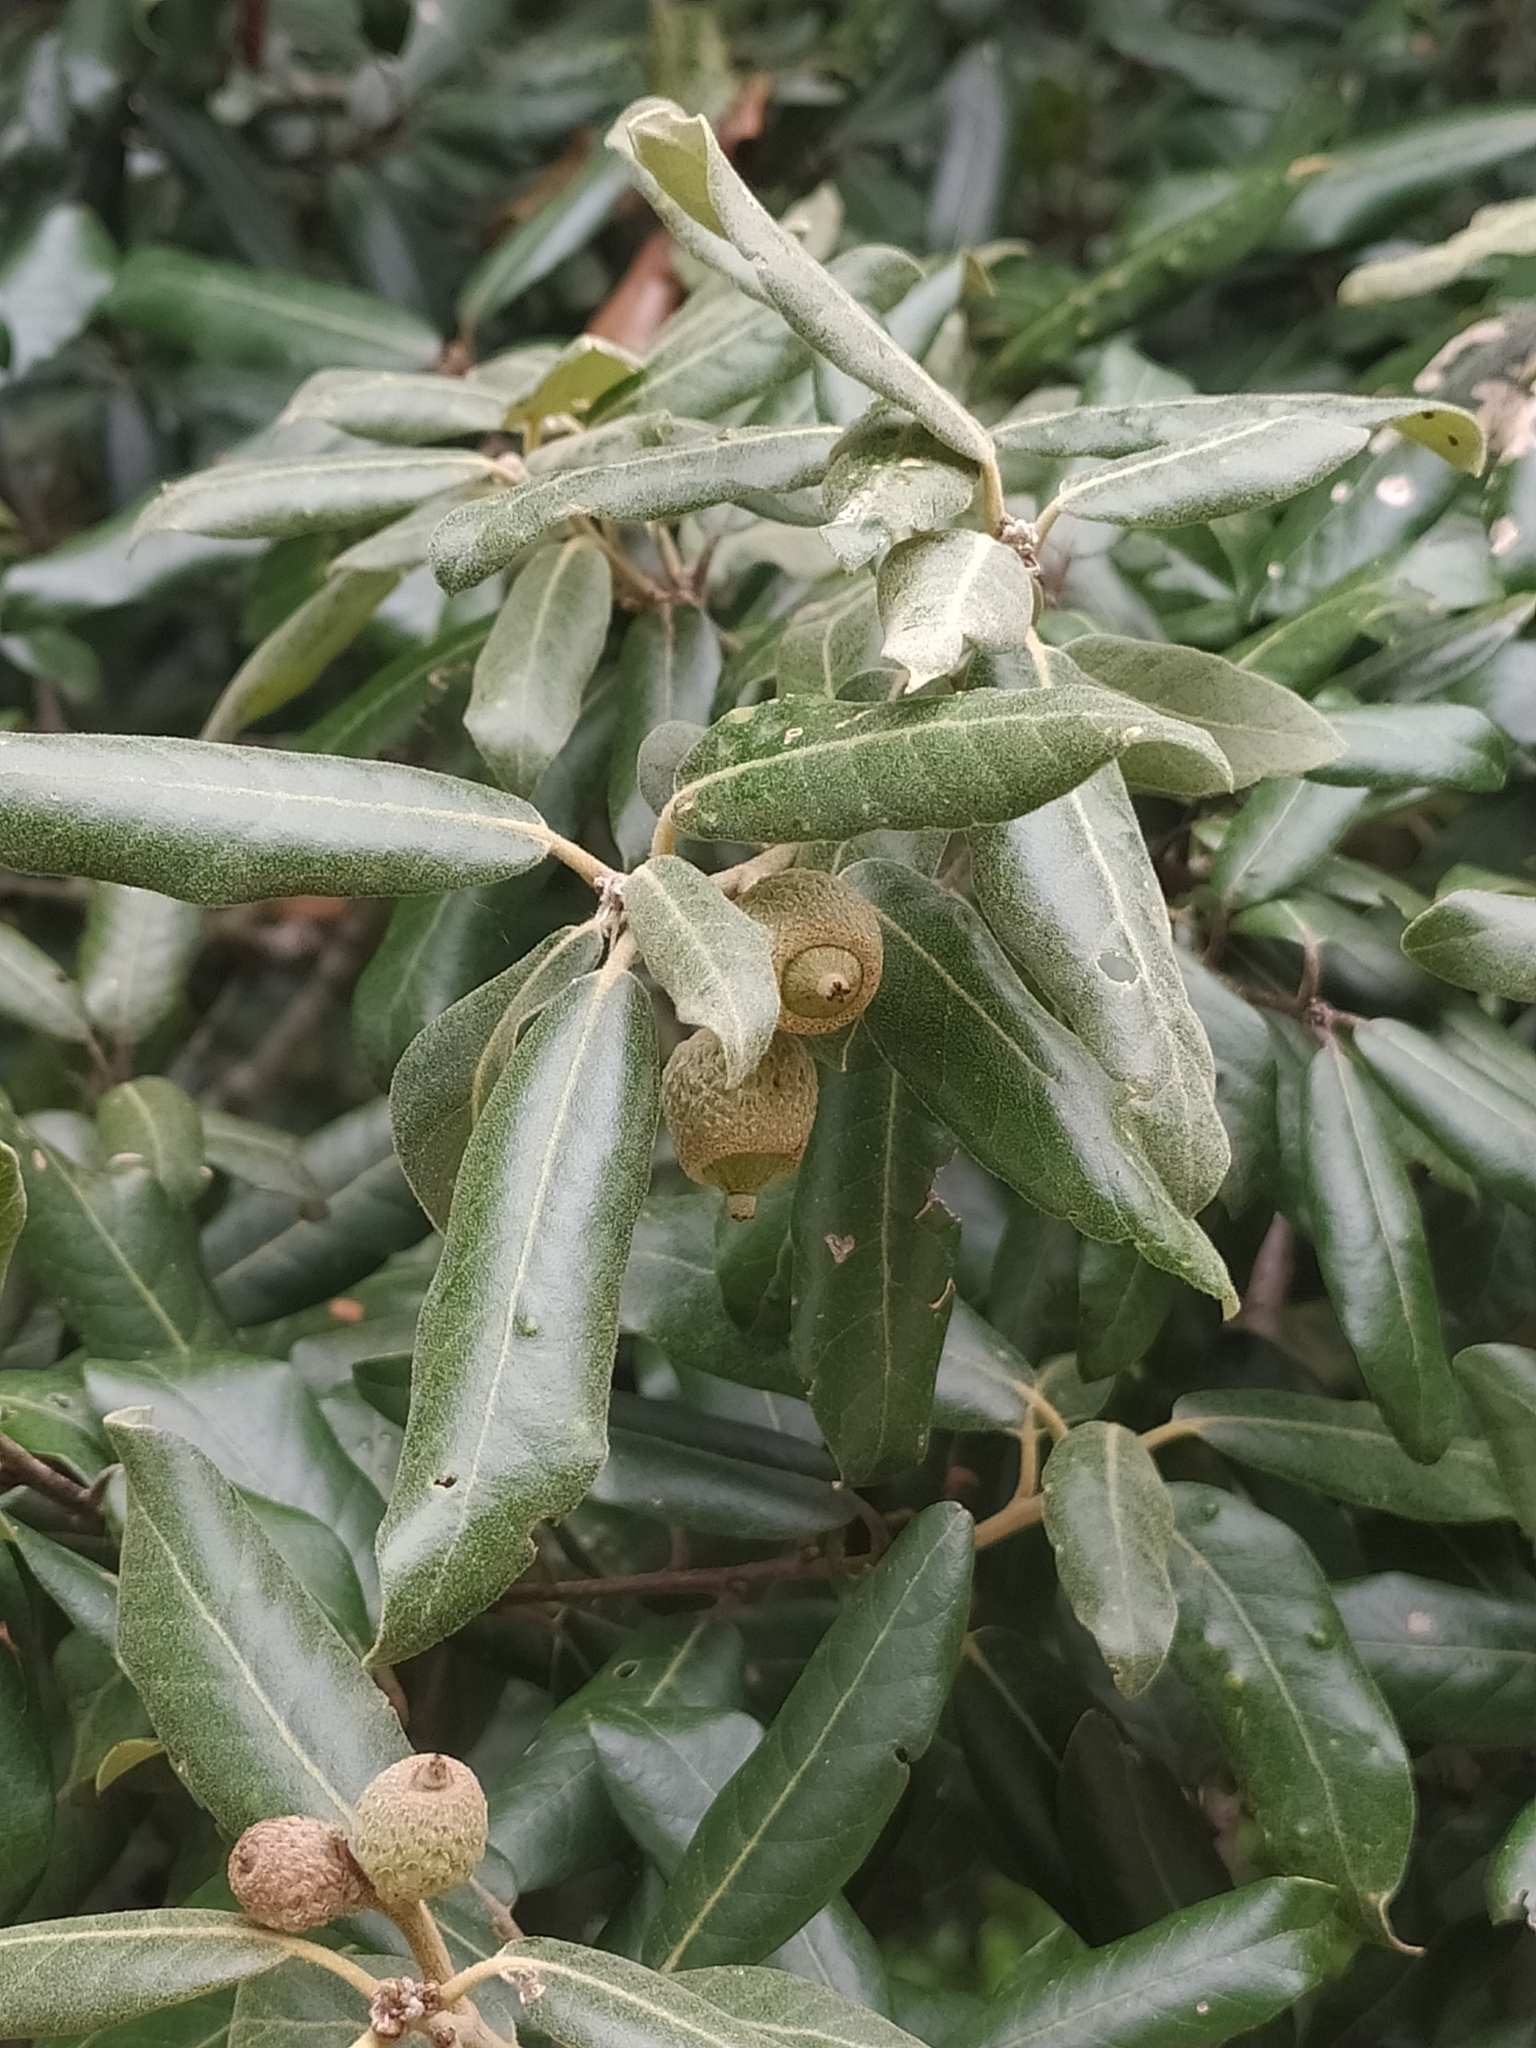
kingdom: Plantae
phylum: Tracheophyta
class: Magnoliopsida
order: Fagales
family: Fagaceae
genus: Quercus
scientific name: Quercus ilex
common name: Evergreen oak
